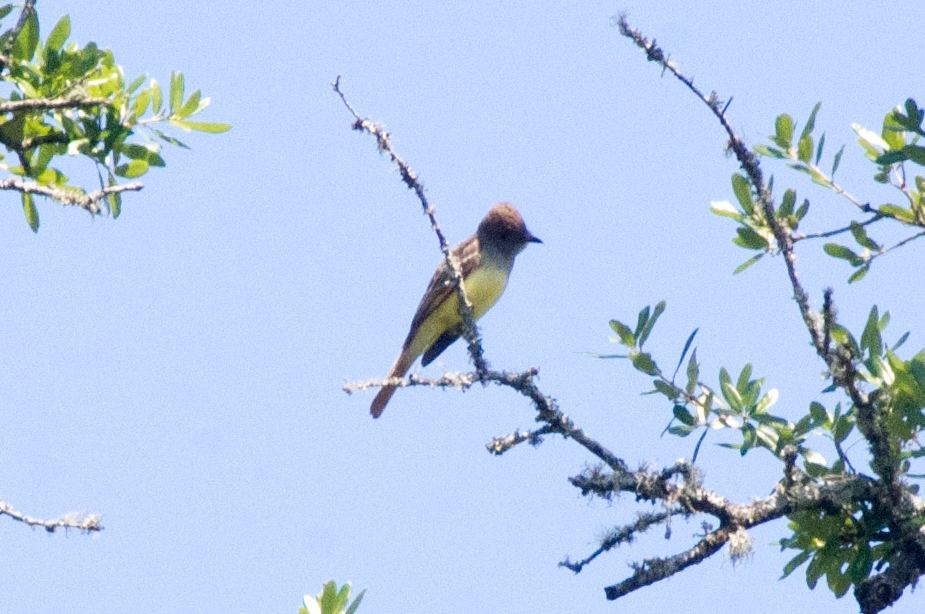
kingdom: Animalia
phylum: Chordata
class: Aves
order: Passeriformes
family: Tyrannidae
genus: Myiarchus
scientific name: Myiarchus crinitus
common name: Great crested flycatcher
